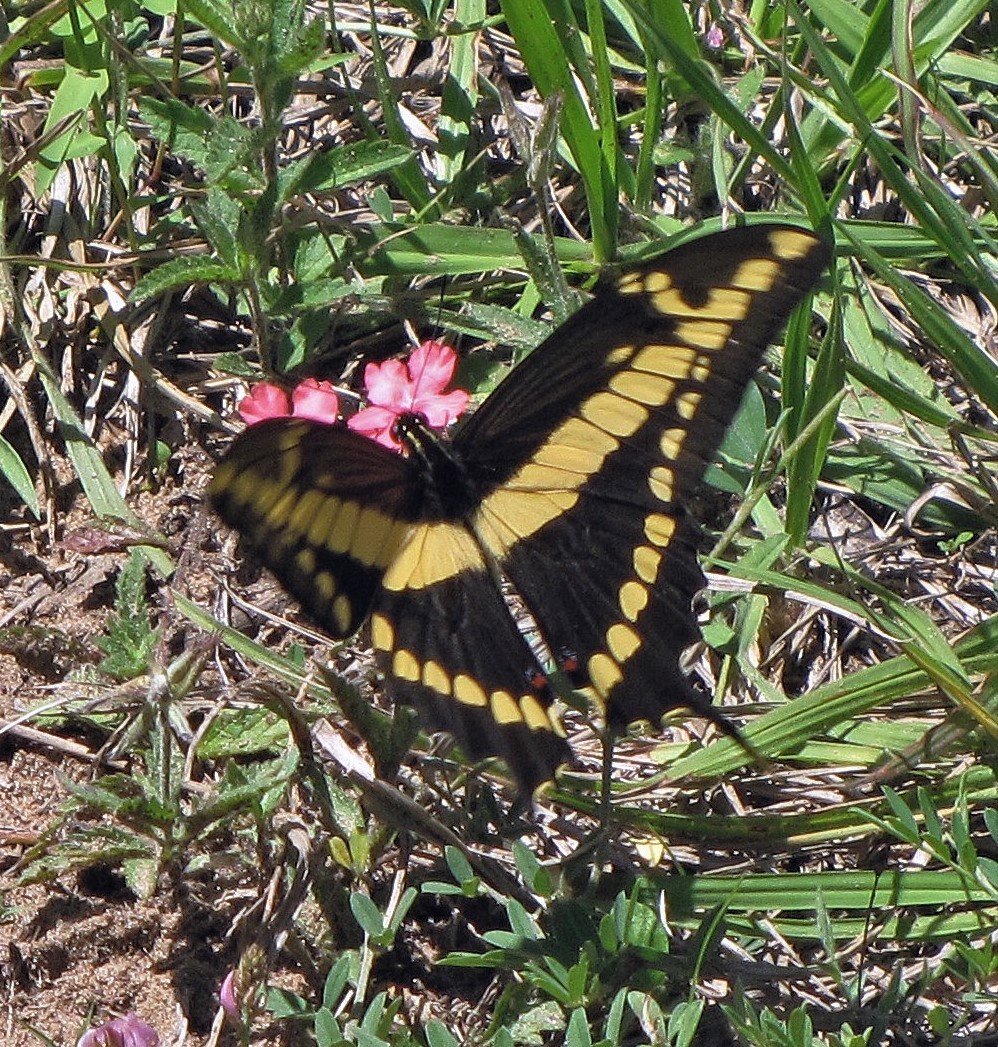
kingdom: Animalia
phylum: Arthropoda
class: Insecta
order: Lepidoptera
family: Papilionidae
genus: Papilio
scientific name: Papilio thoas
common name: King swallowtail
